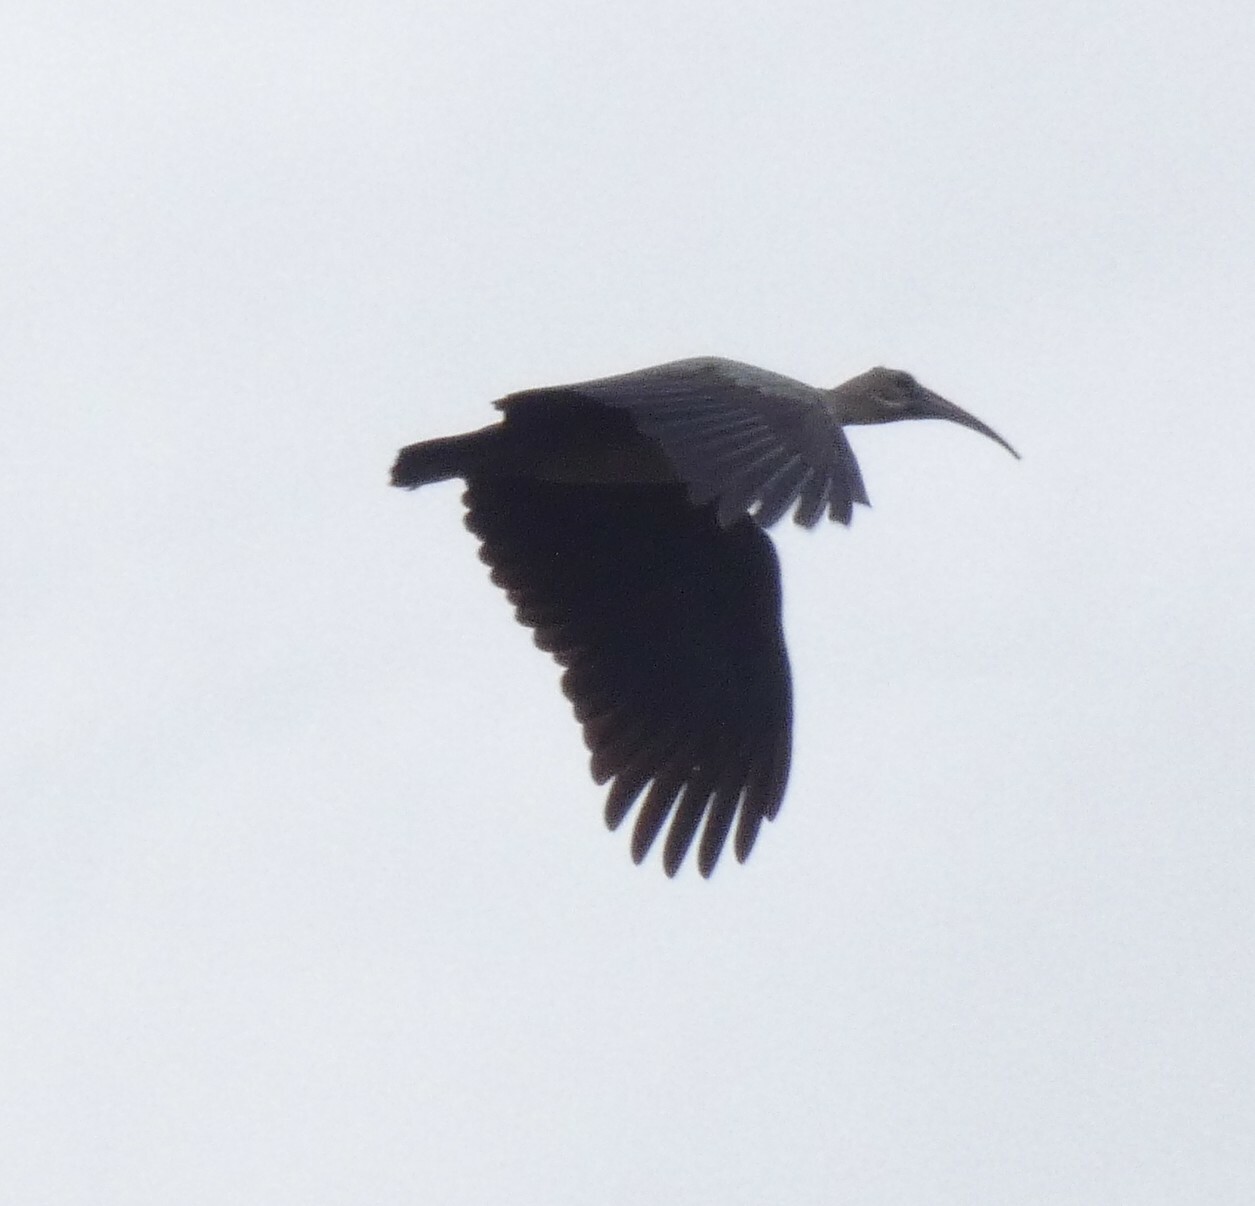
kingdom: Animalia
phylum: Chordata
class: Aves
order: Pelecaniformes
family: Threskiornithidae
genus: Bostrychia
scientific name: Bostrychia hagedash
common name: Hadada ibis
